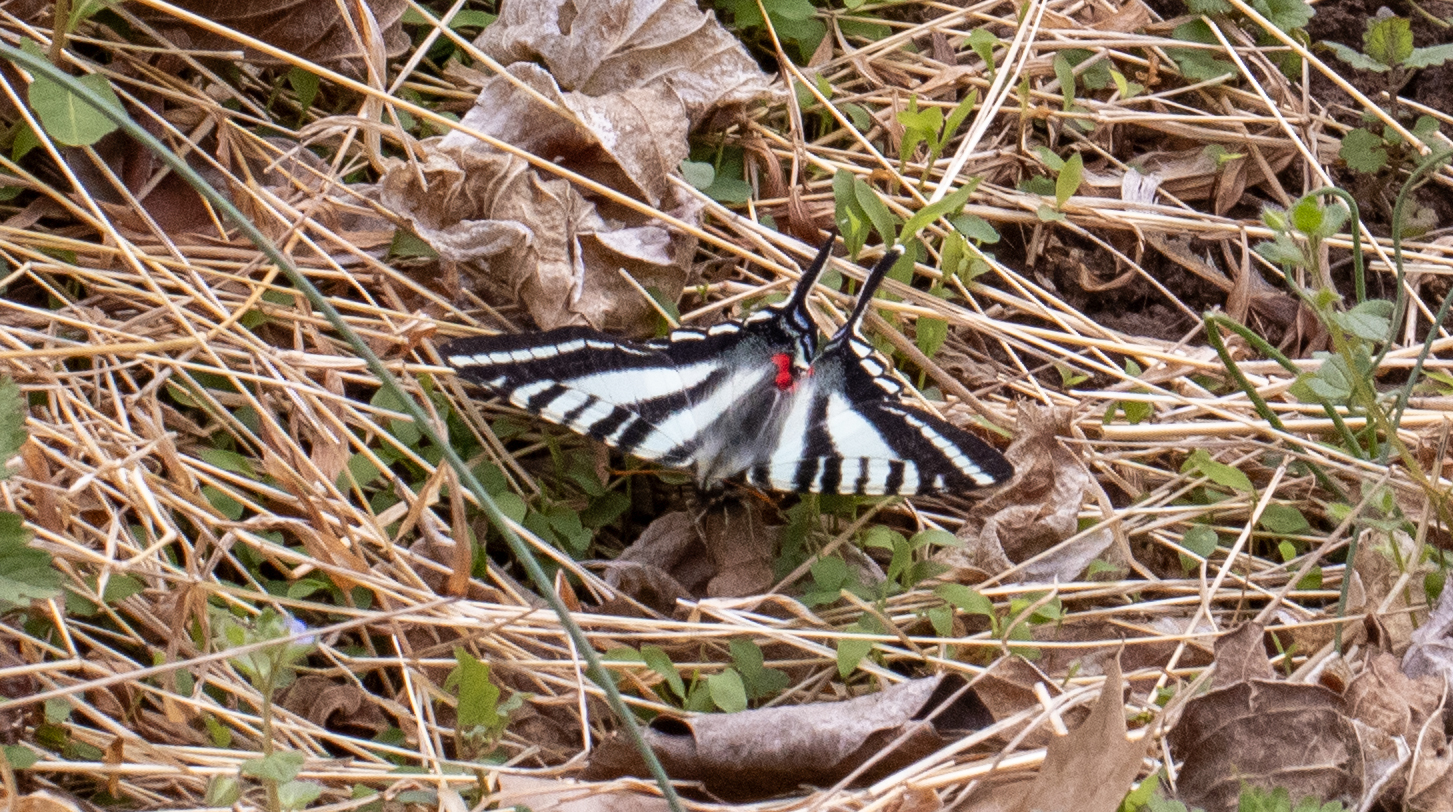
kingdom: Animalia
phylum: Arthropoda
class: Insecta
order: Lepidoptera
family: Papilionidae
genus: Protographium
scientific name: Protographium marcellus
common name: Zebra swallowtail
